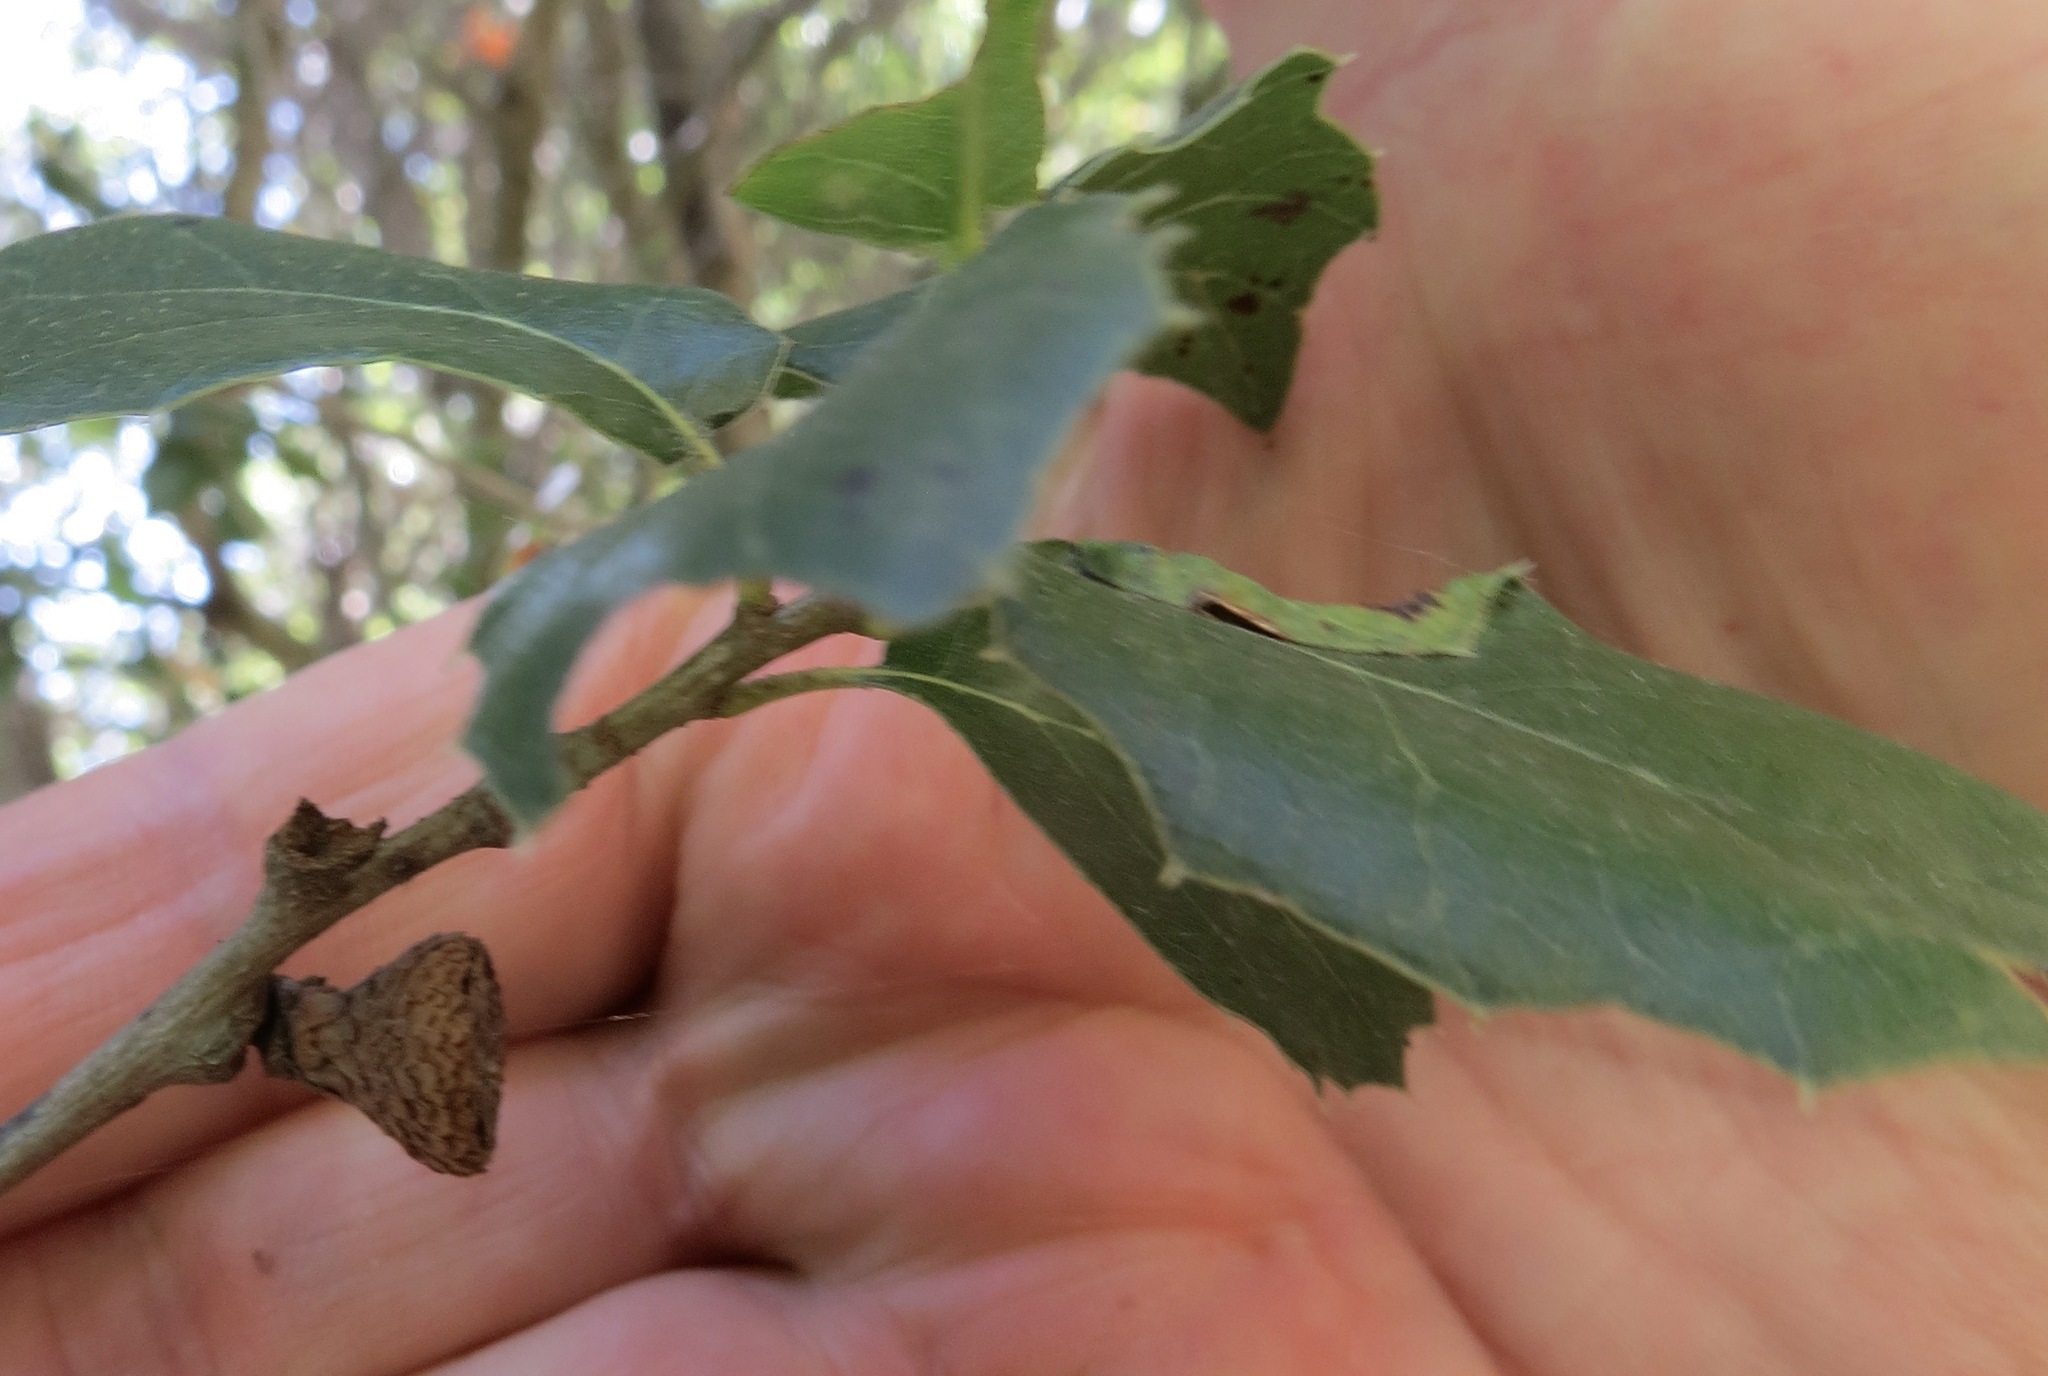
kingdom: Plantae
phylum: Tracheophyta
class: Magnoliopsida
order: Fagales
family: Fagaceae
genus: Quercus
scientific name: Quercus agrifolia
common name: California live oak
